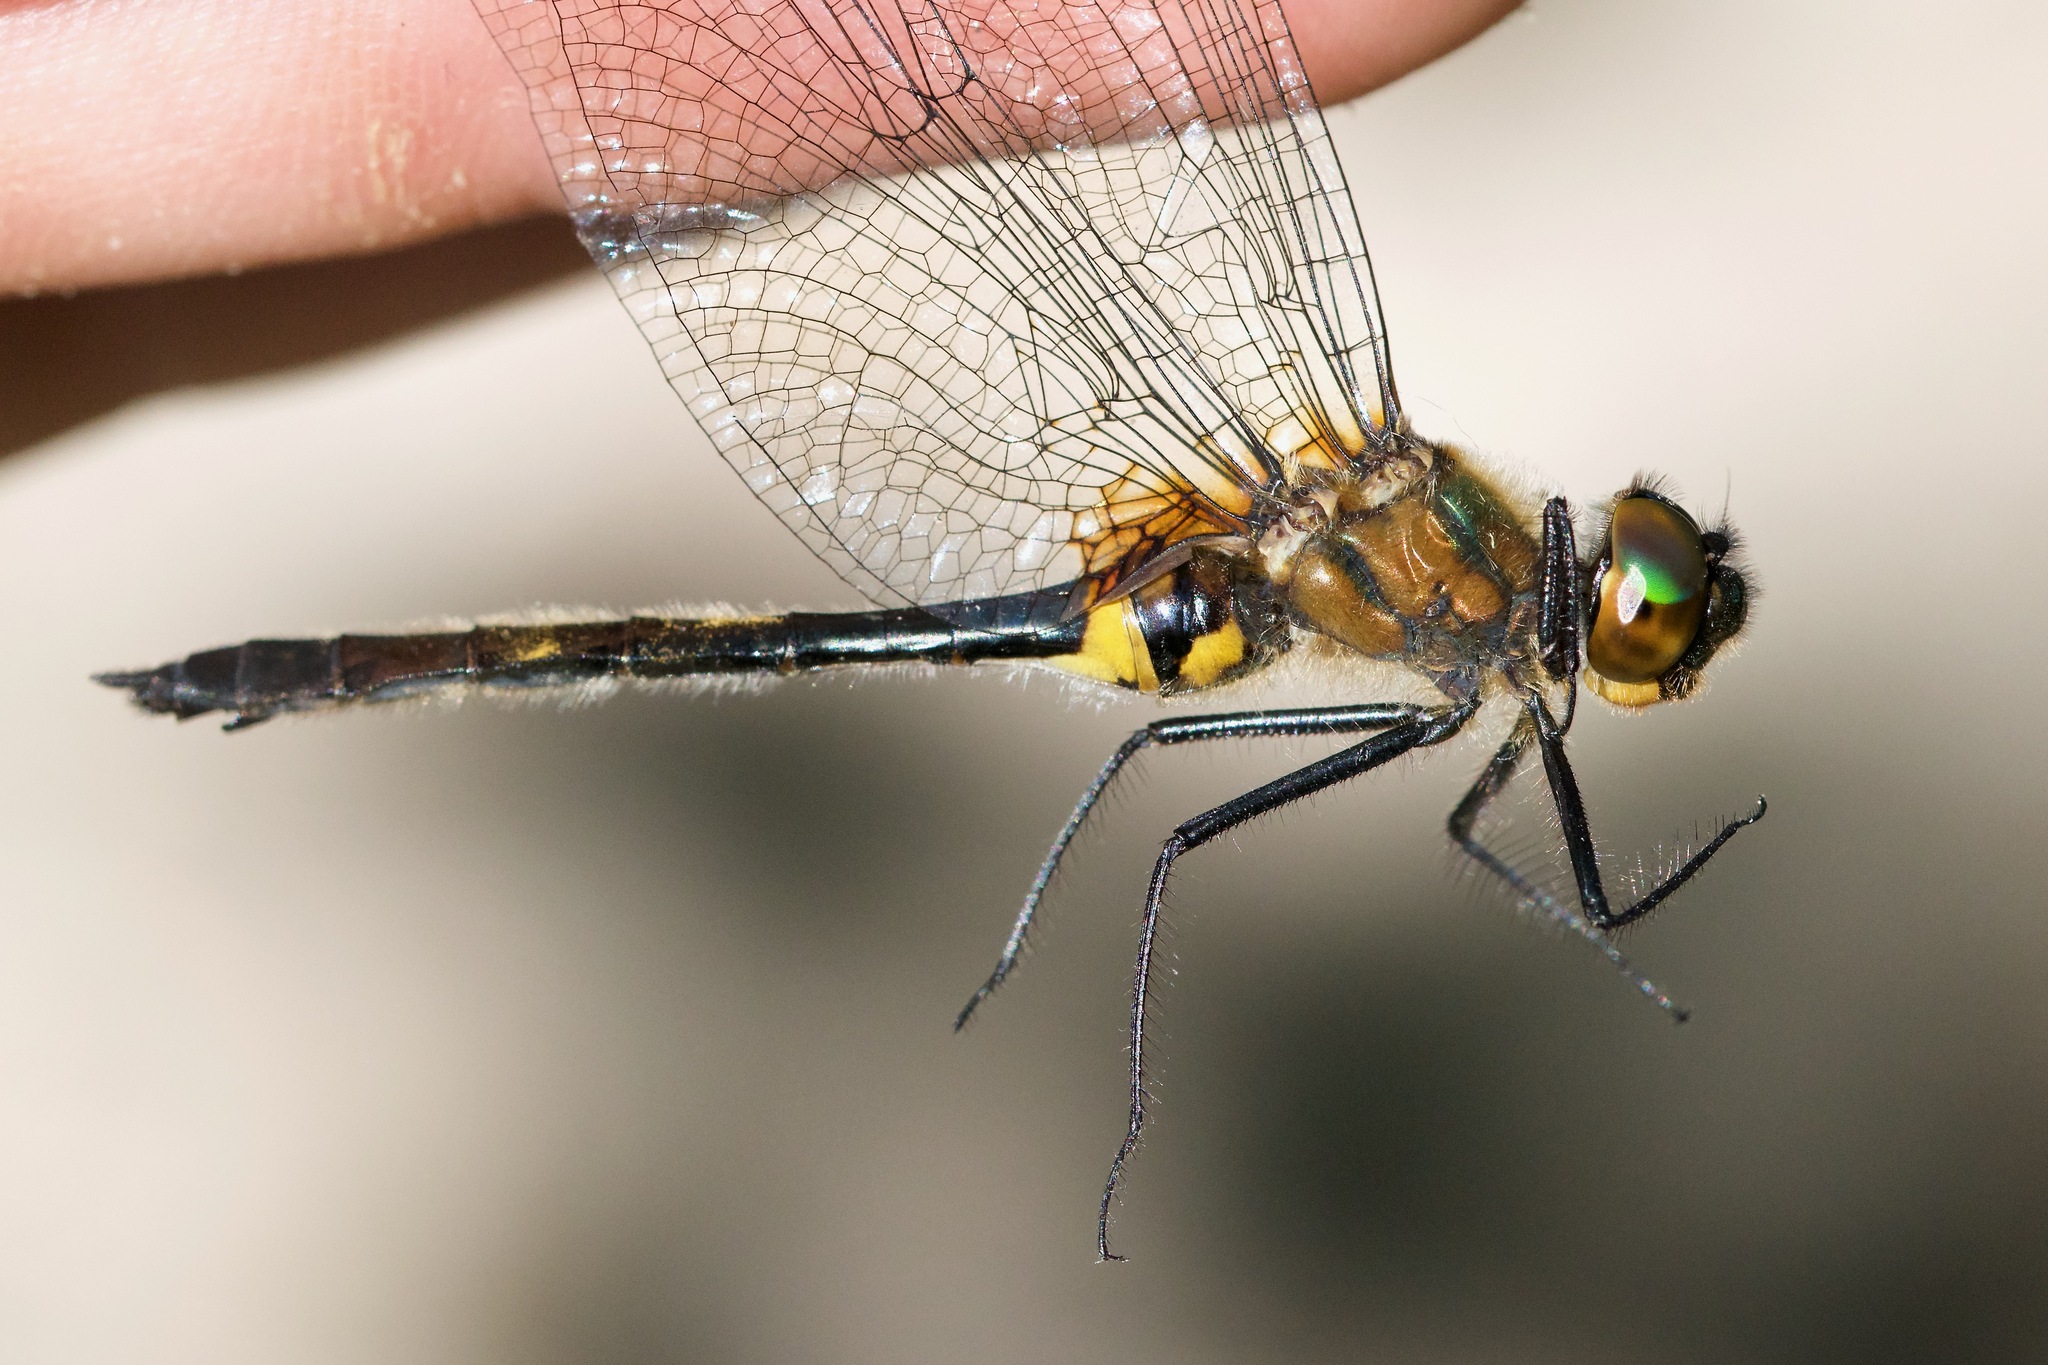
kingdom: Animalia
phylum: Arthropoda
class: Insecta
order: Odonata
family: Corduliidae
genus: Dorocordulia
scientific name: Dorocordulia libera
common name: Racket-tailed emerald
